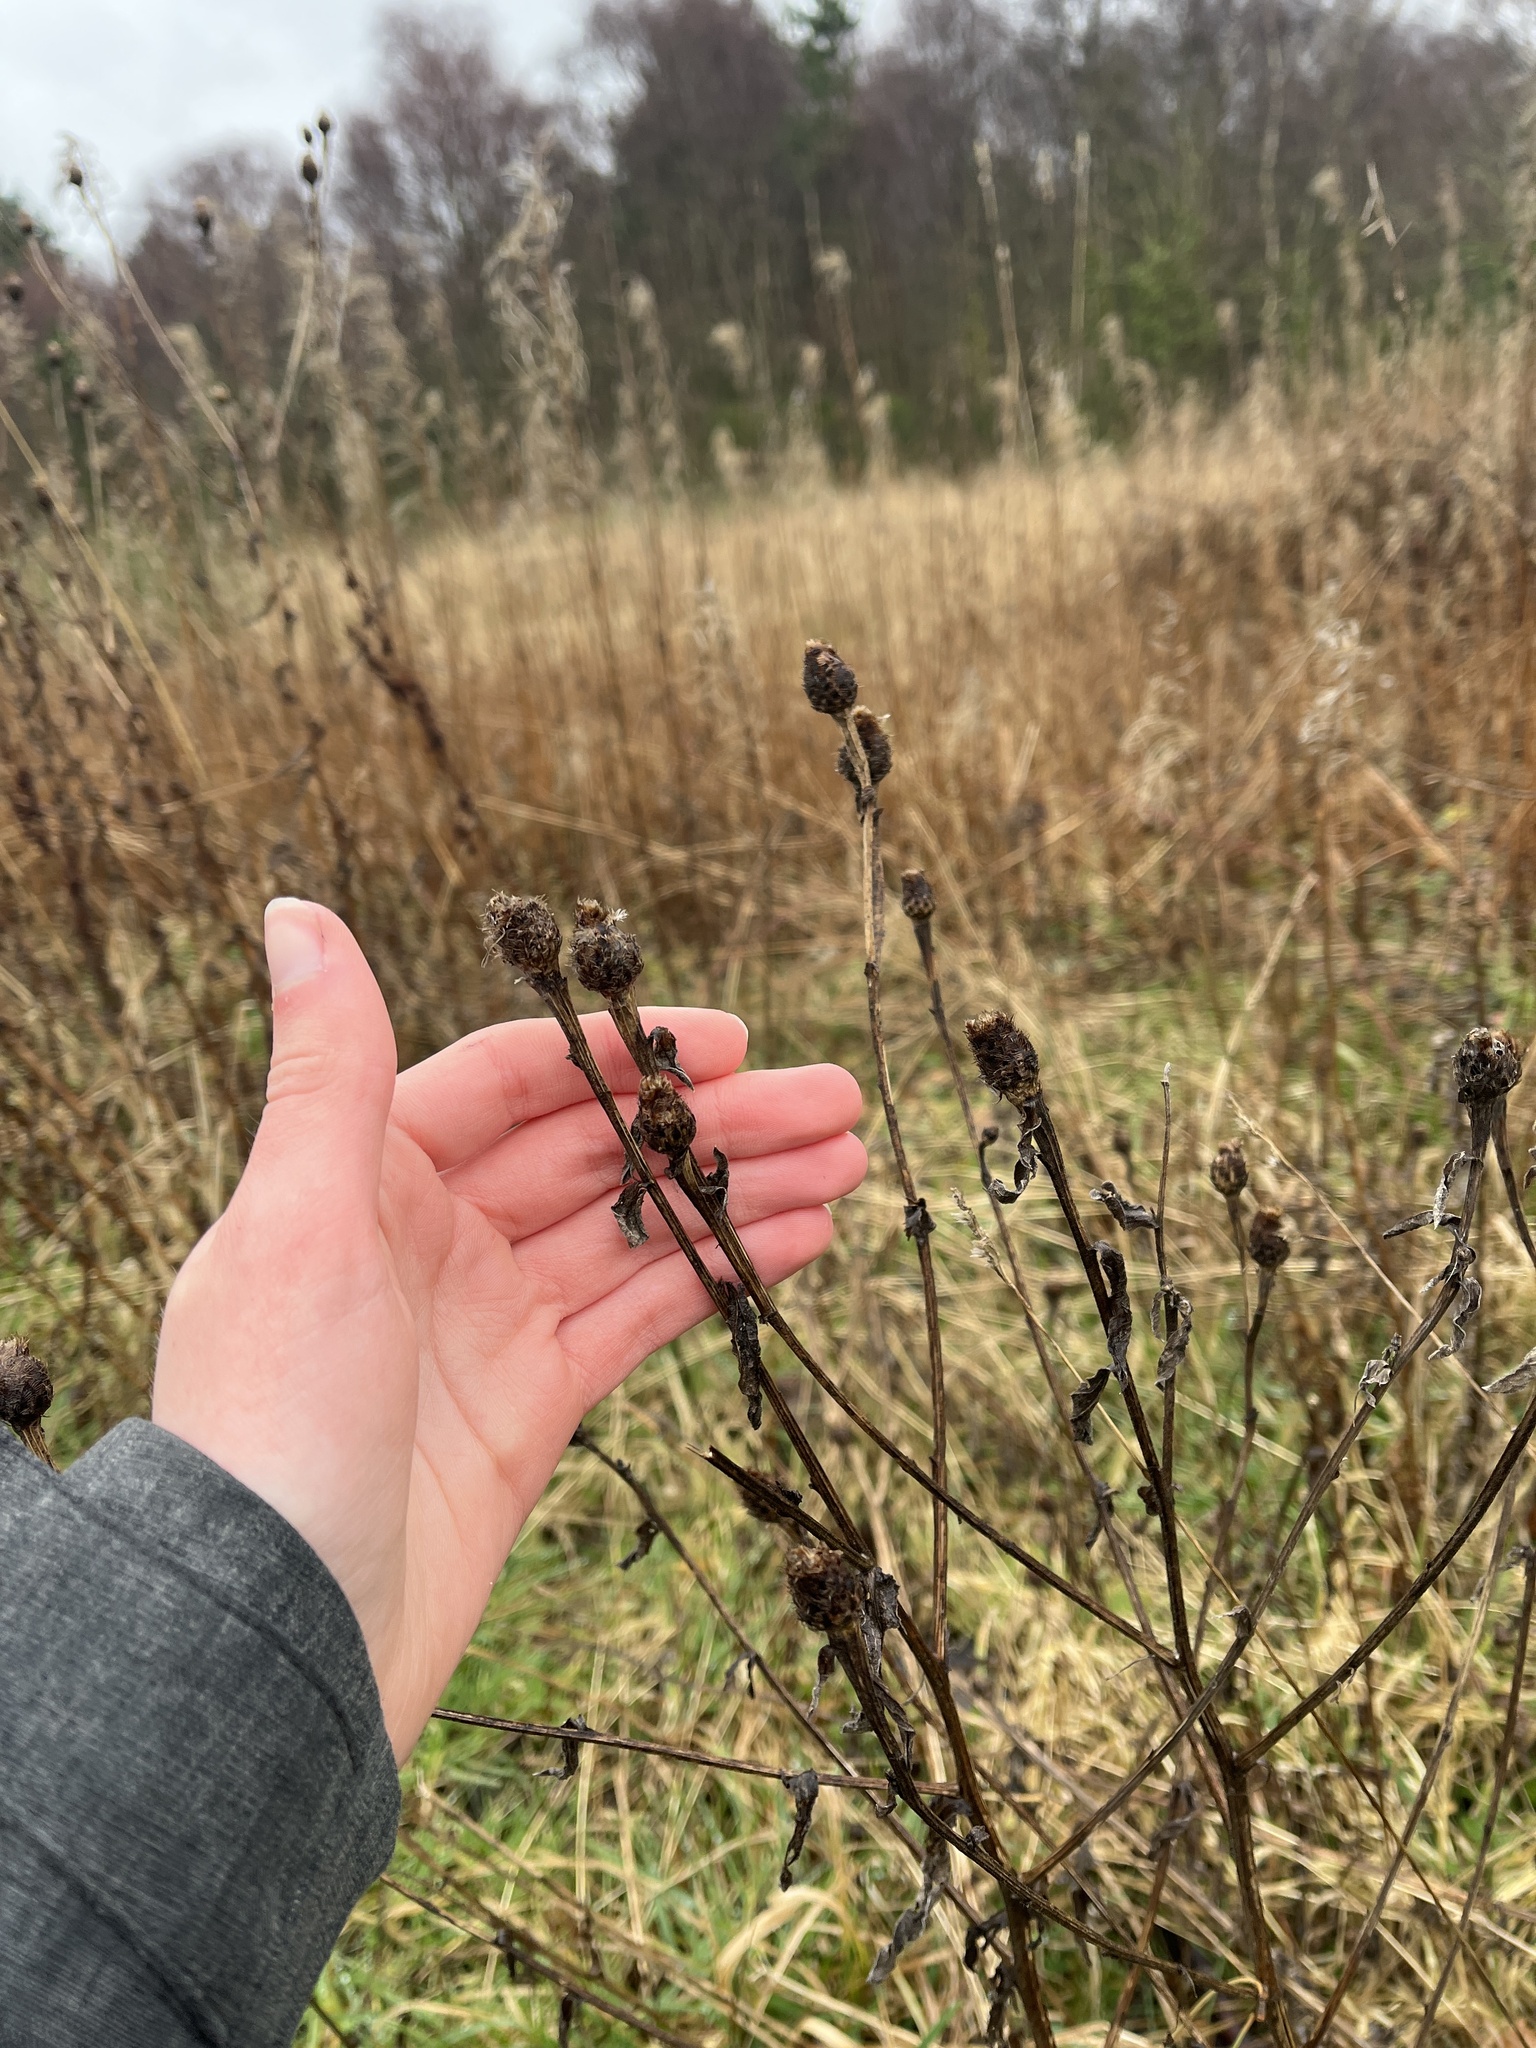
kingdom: Plantae
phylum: Tracheophyta
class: Magnoliopsida
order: Asterales
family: Asteraceae
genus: Centaurea
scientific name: Centaurea nigra
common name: Lesser knapweed
